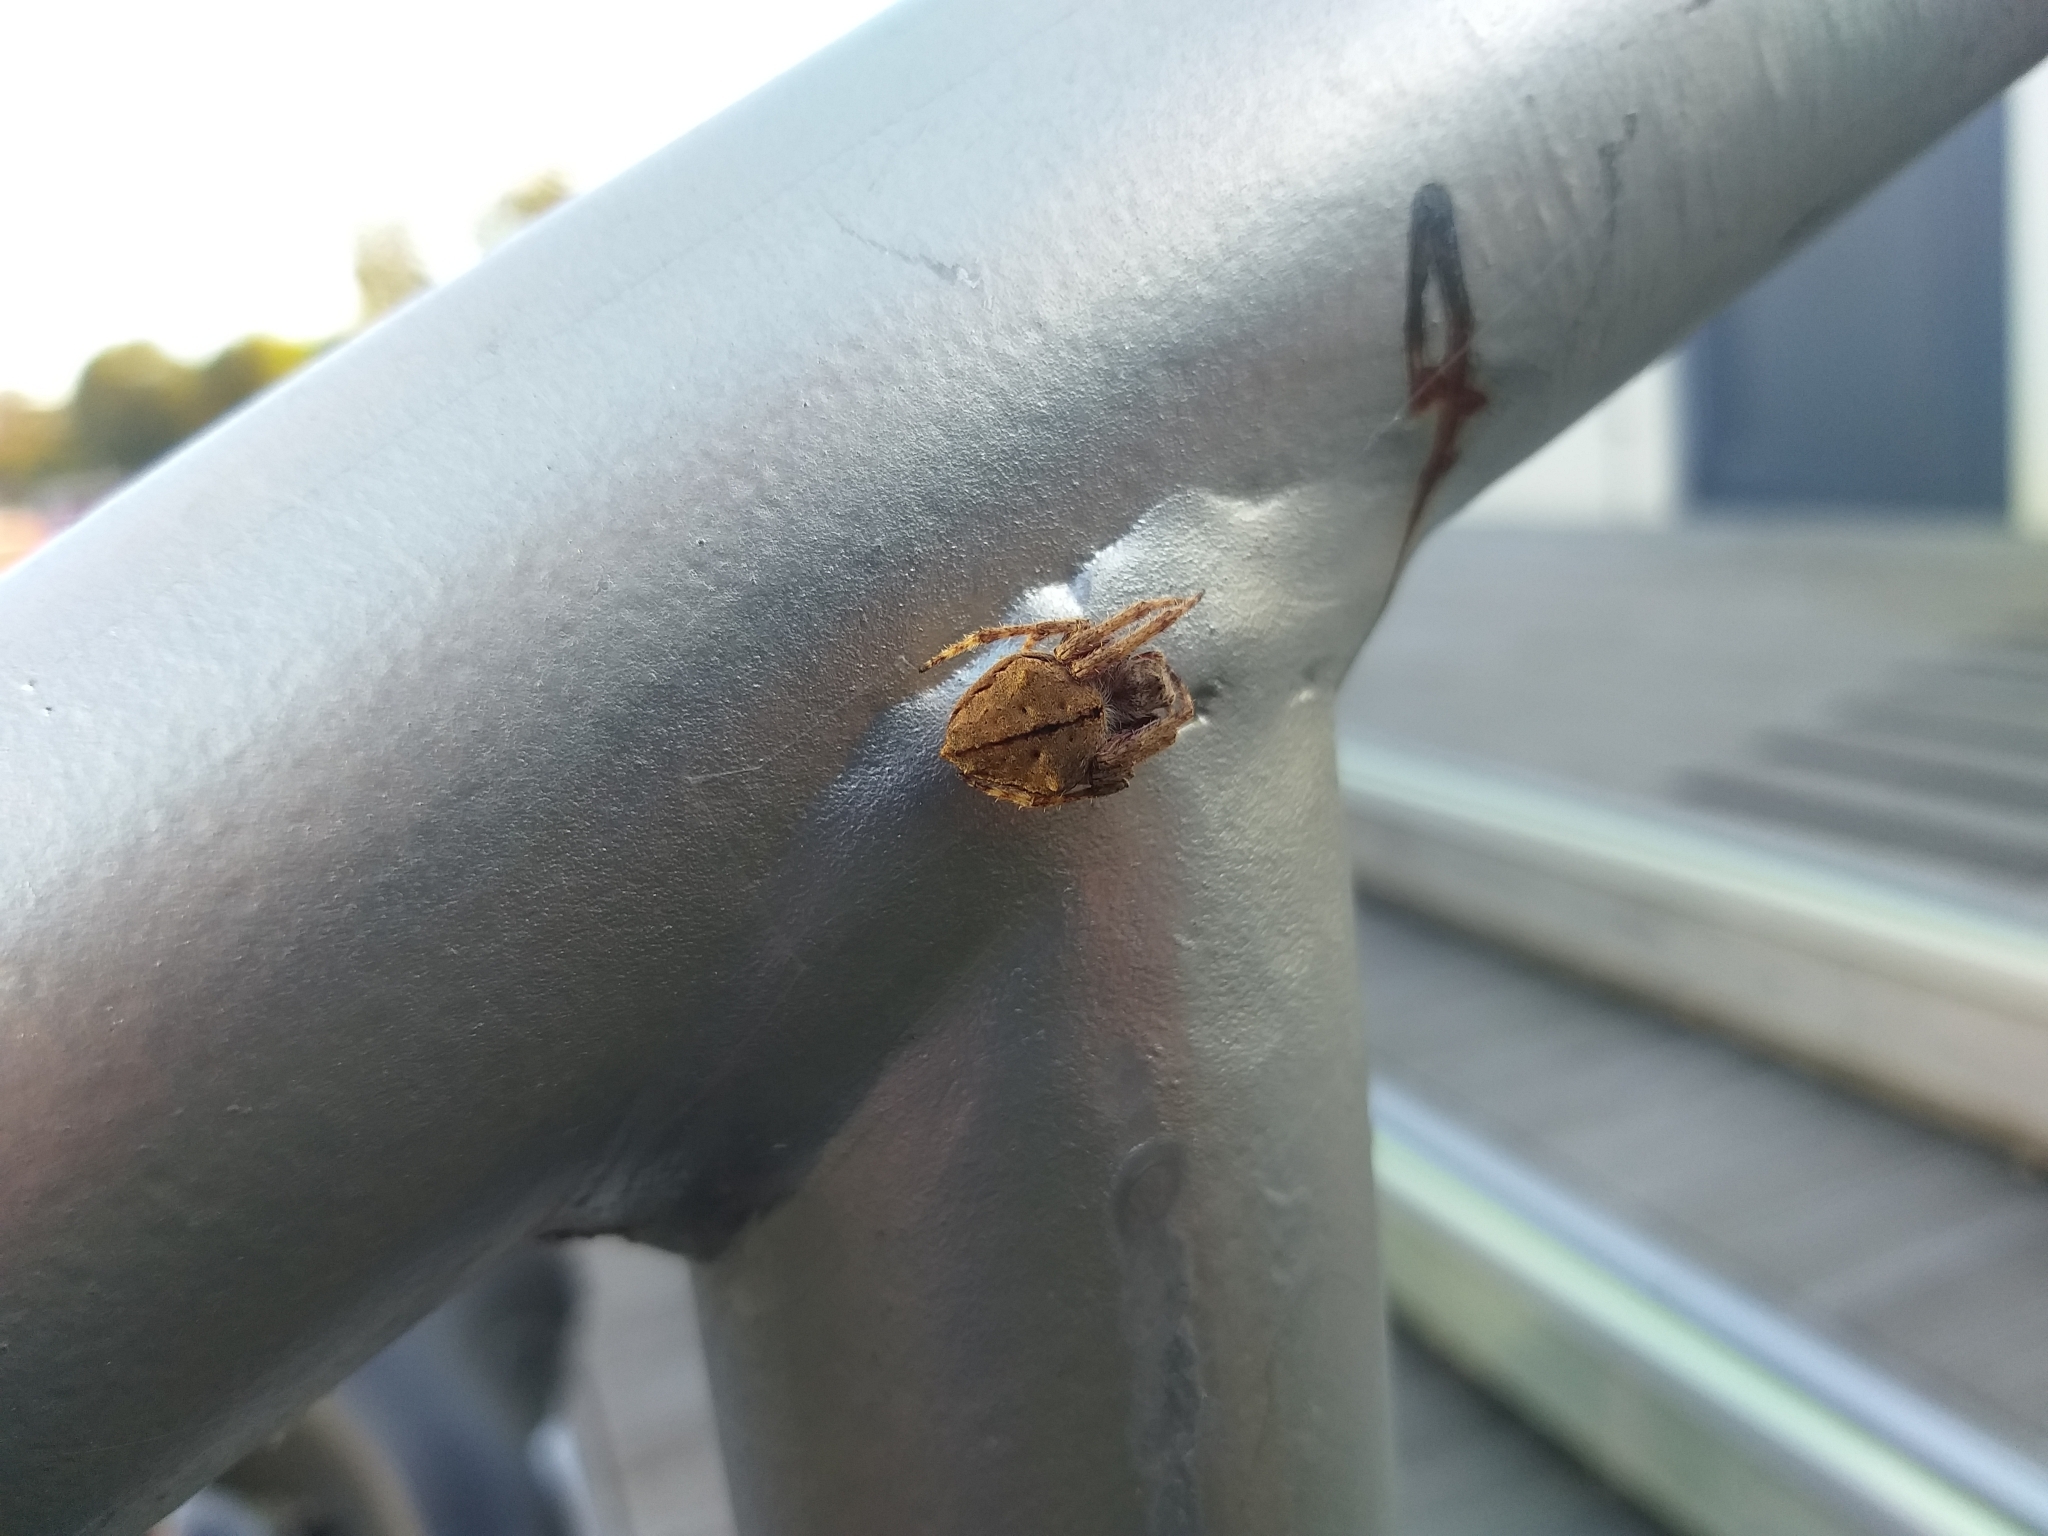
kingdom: Animalia
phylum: Arthropoda
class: Arachnida
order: Araneae
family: Araneidae
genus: Eriophora
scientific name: Eriophora pustulosa
